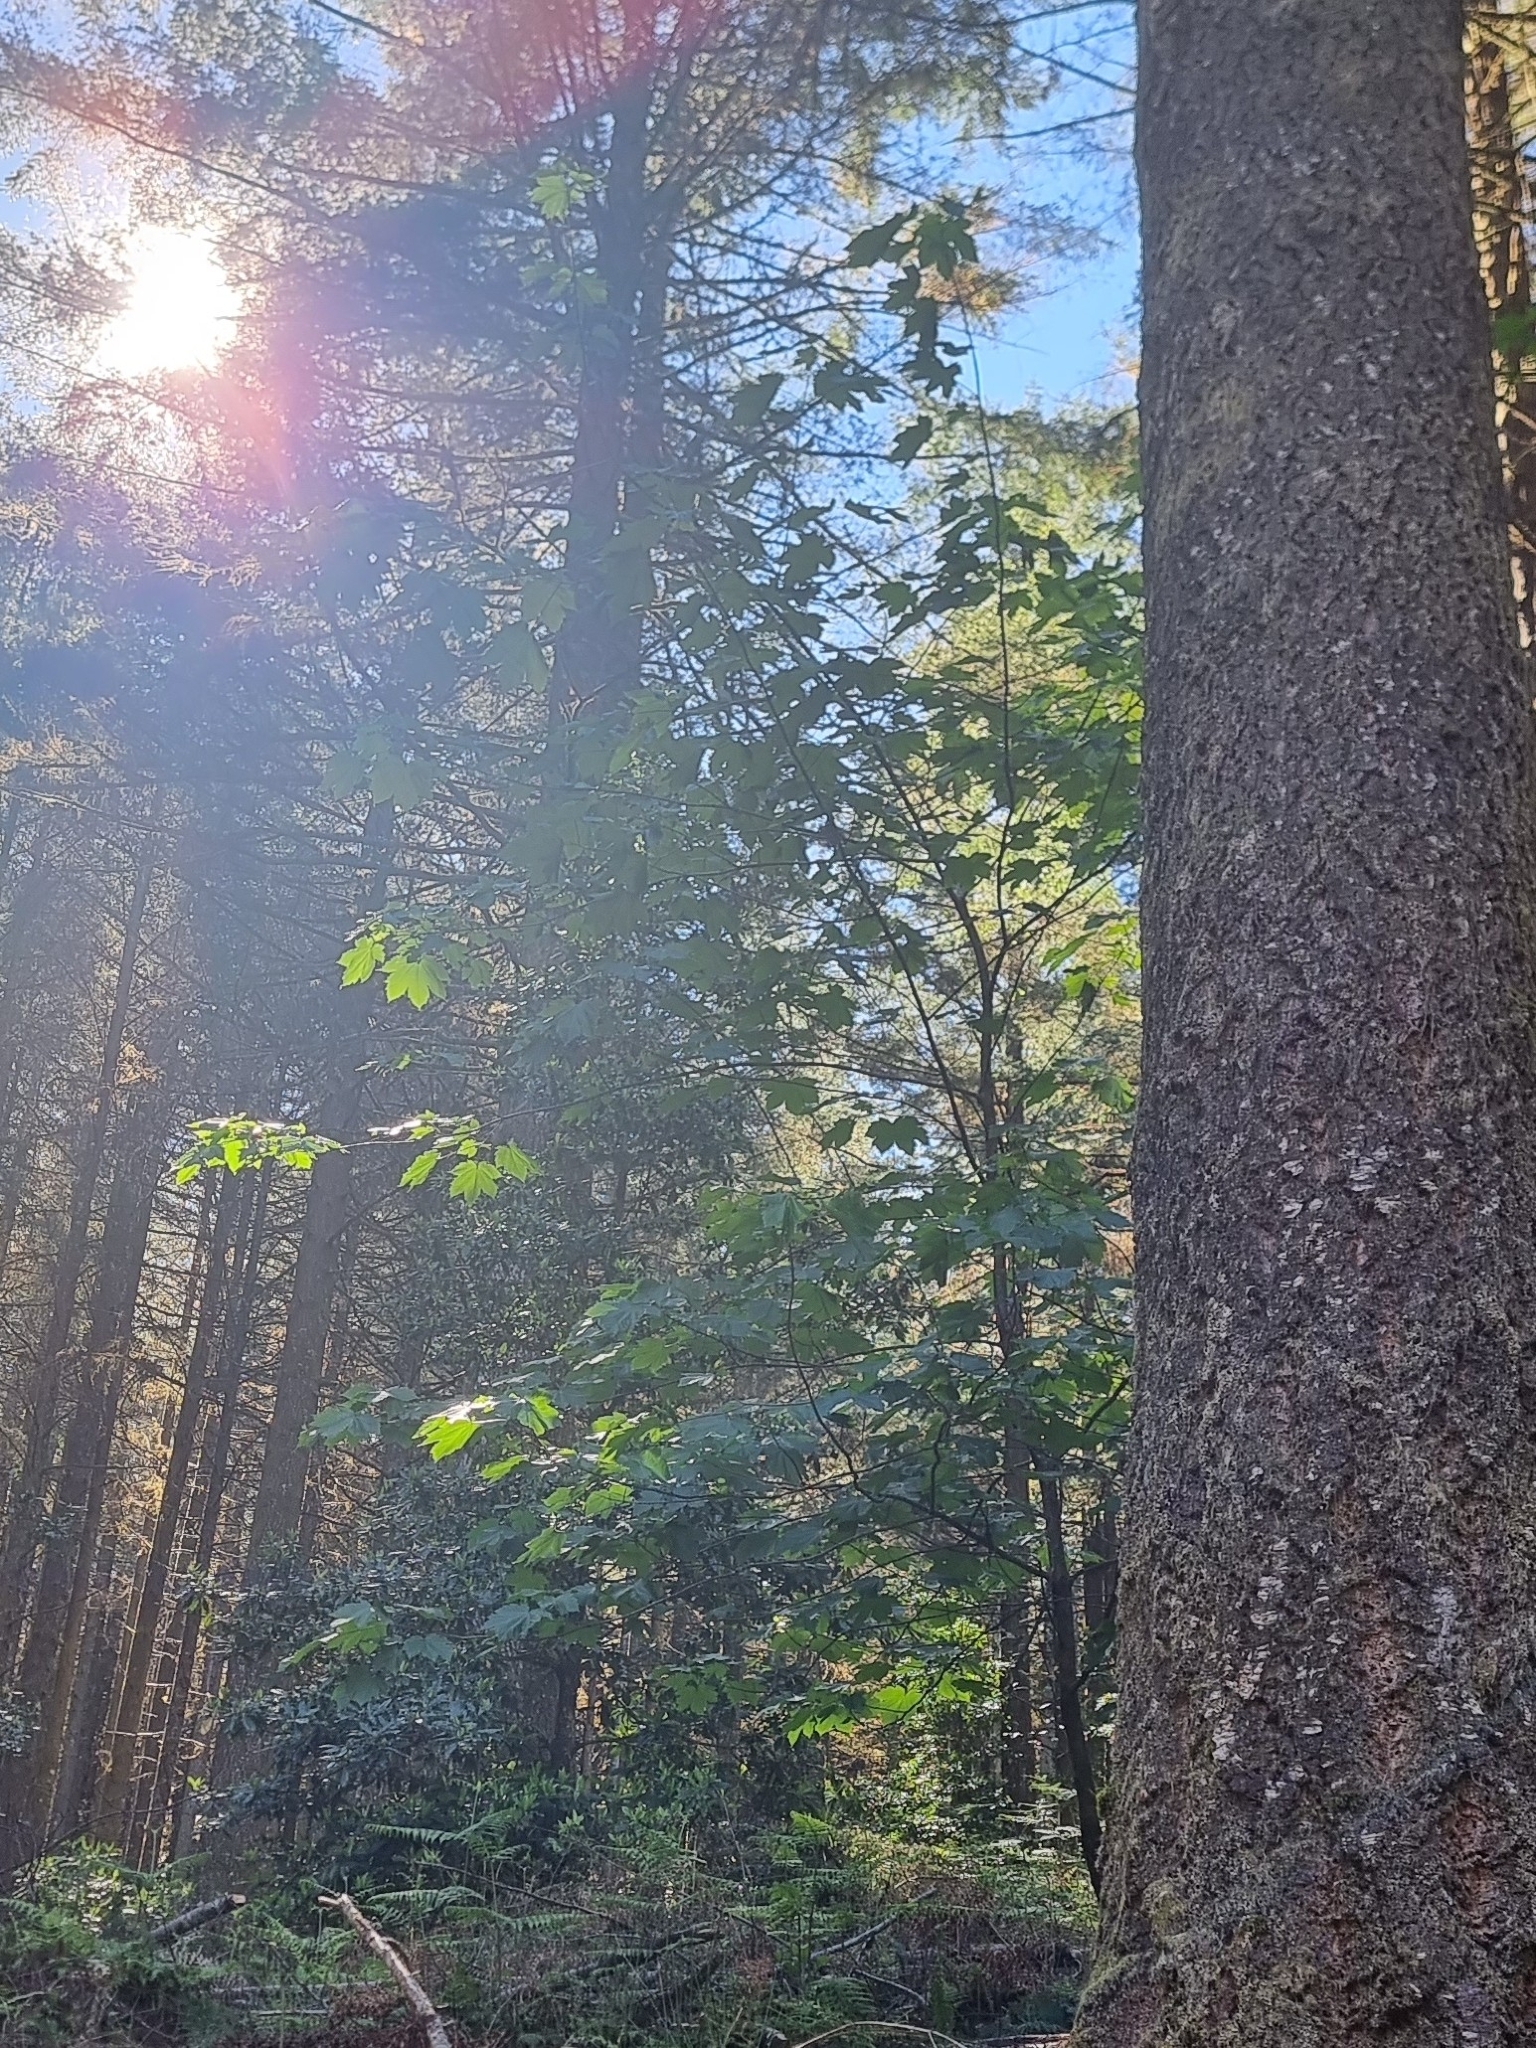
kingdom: Plantae
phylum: Tracheophyta
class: Magnoliopsida
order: Sapindales
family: Sapindaceae
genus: Acer
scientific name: Acer pseudoplatanus
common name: Sycamore
